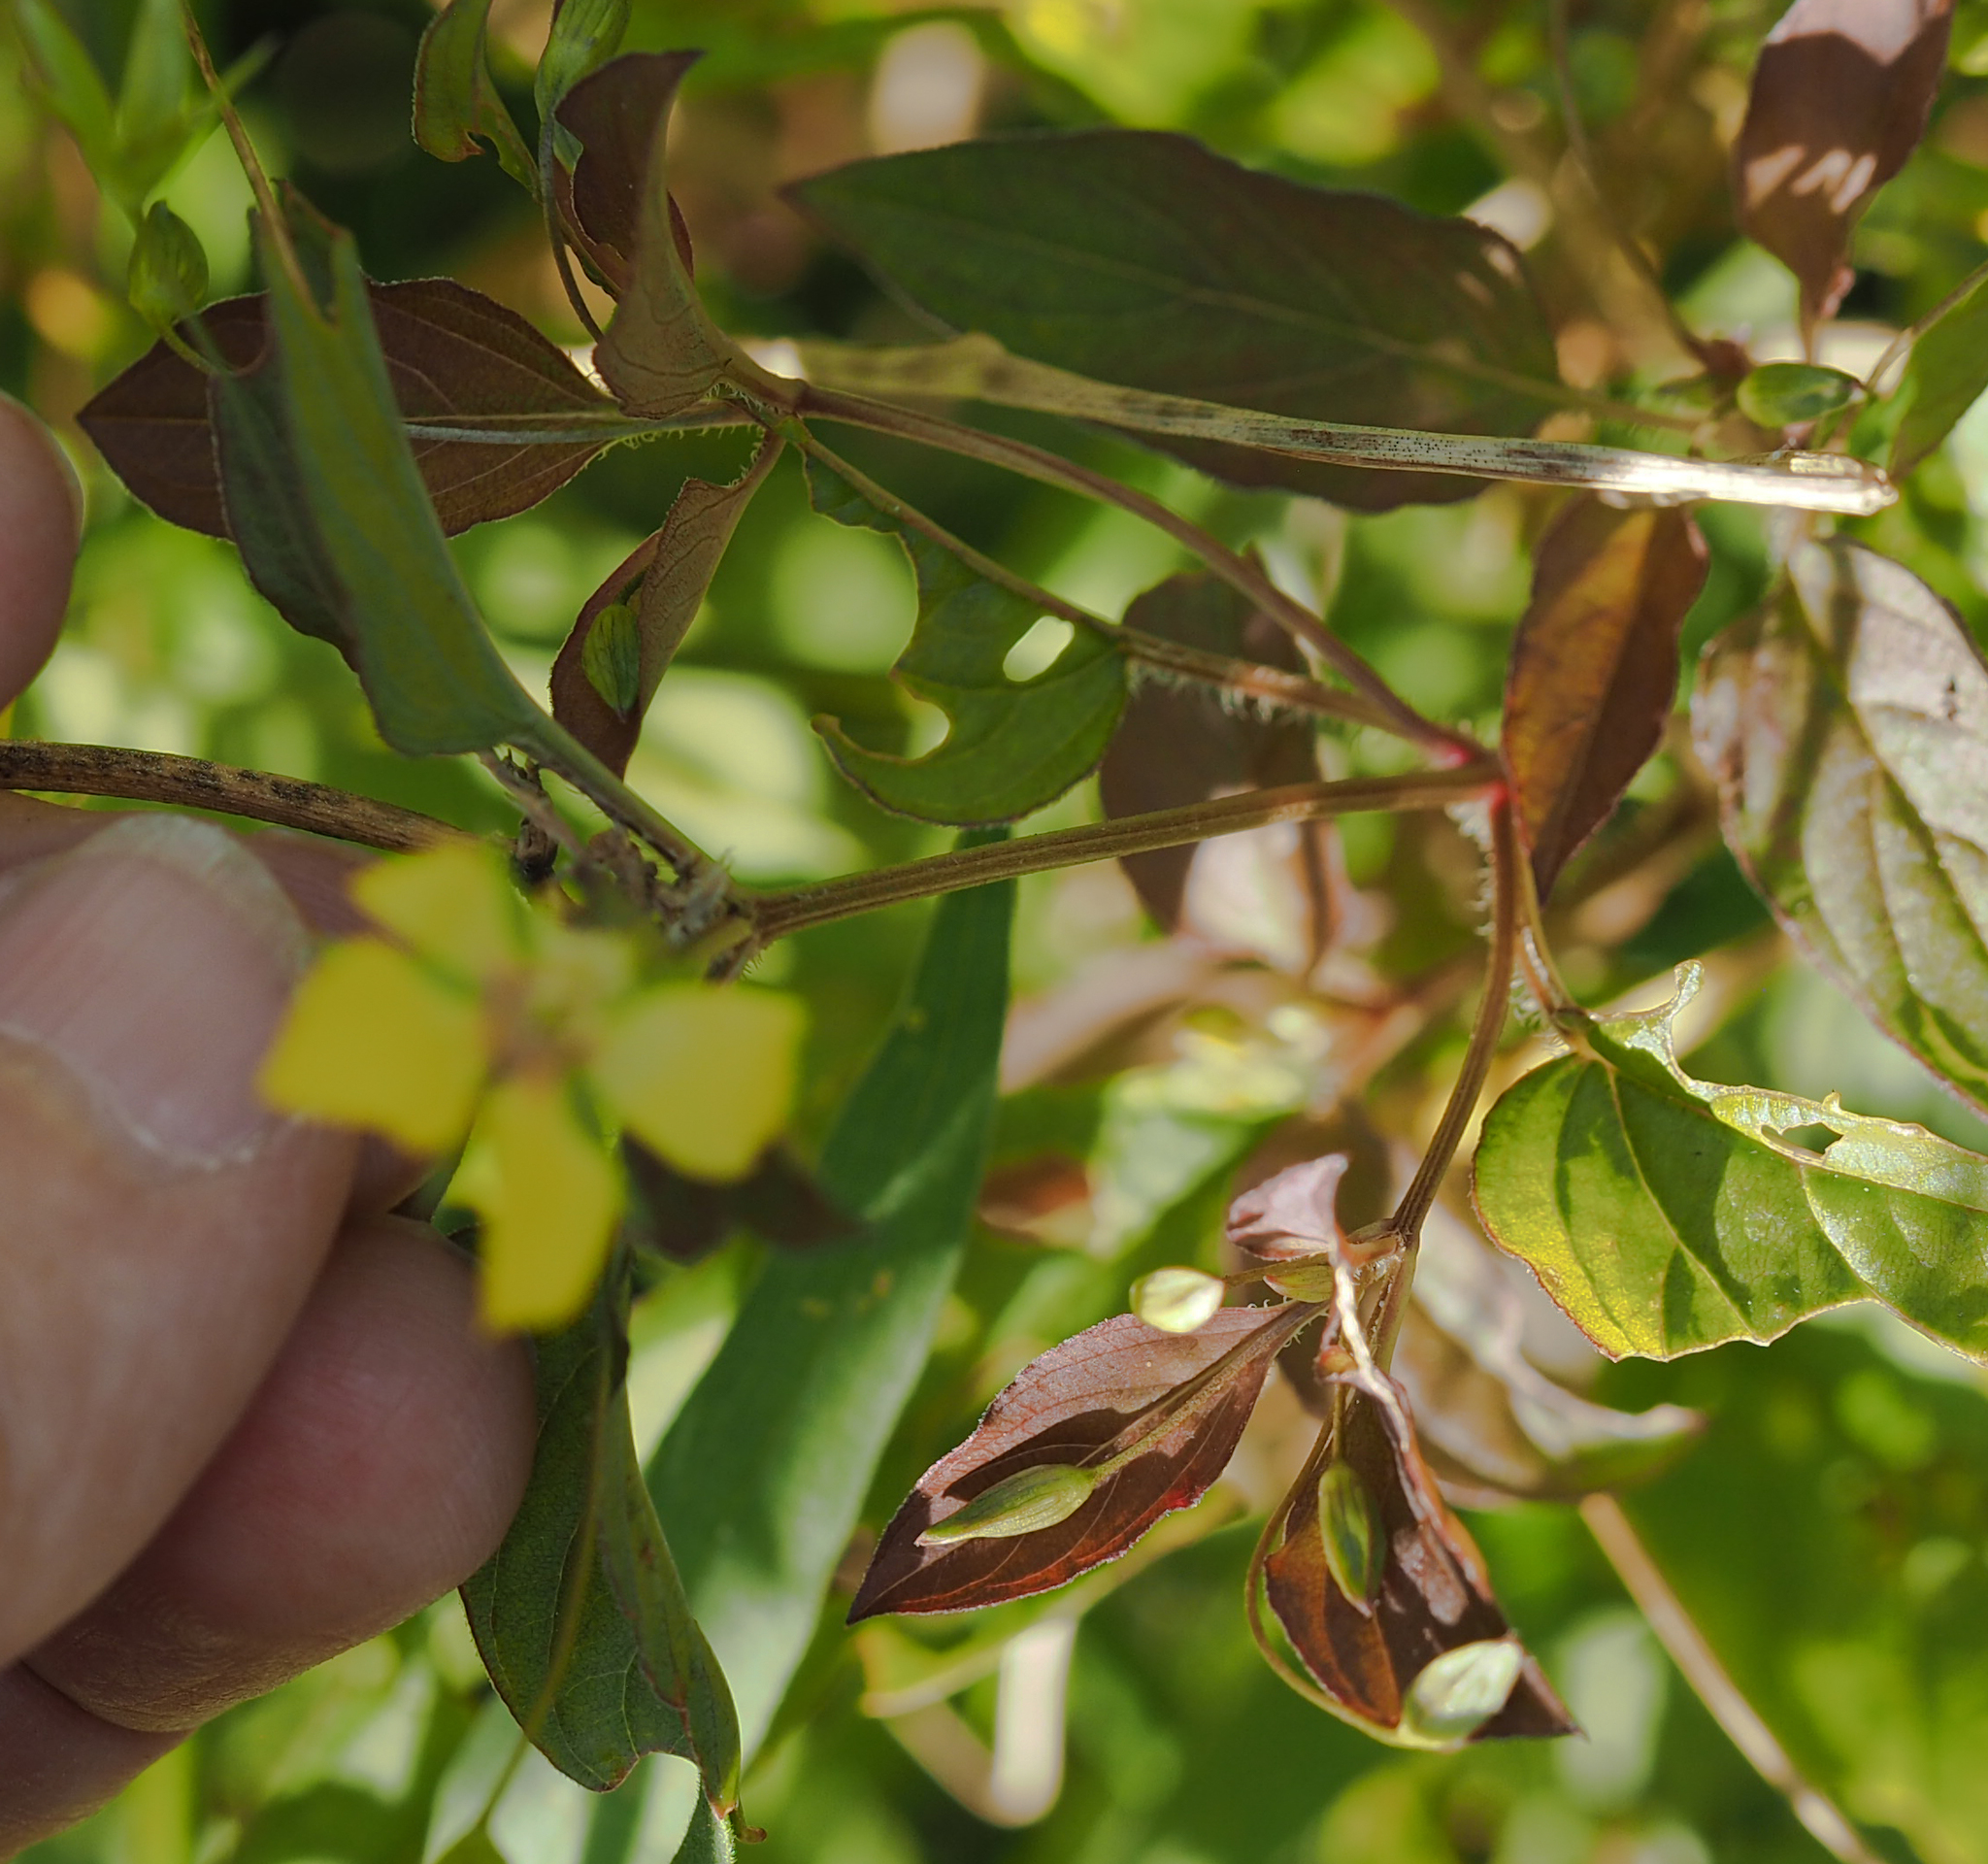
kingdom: Plantae
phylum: Tracheophyta
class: Magnoliopsida
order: Ericales
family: Primulaceae
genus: Lysimachia
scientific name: Lysimachia ciliata
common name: Fringed loosestrife
